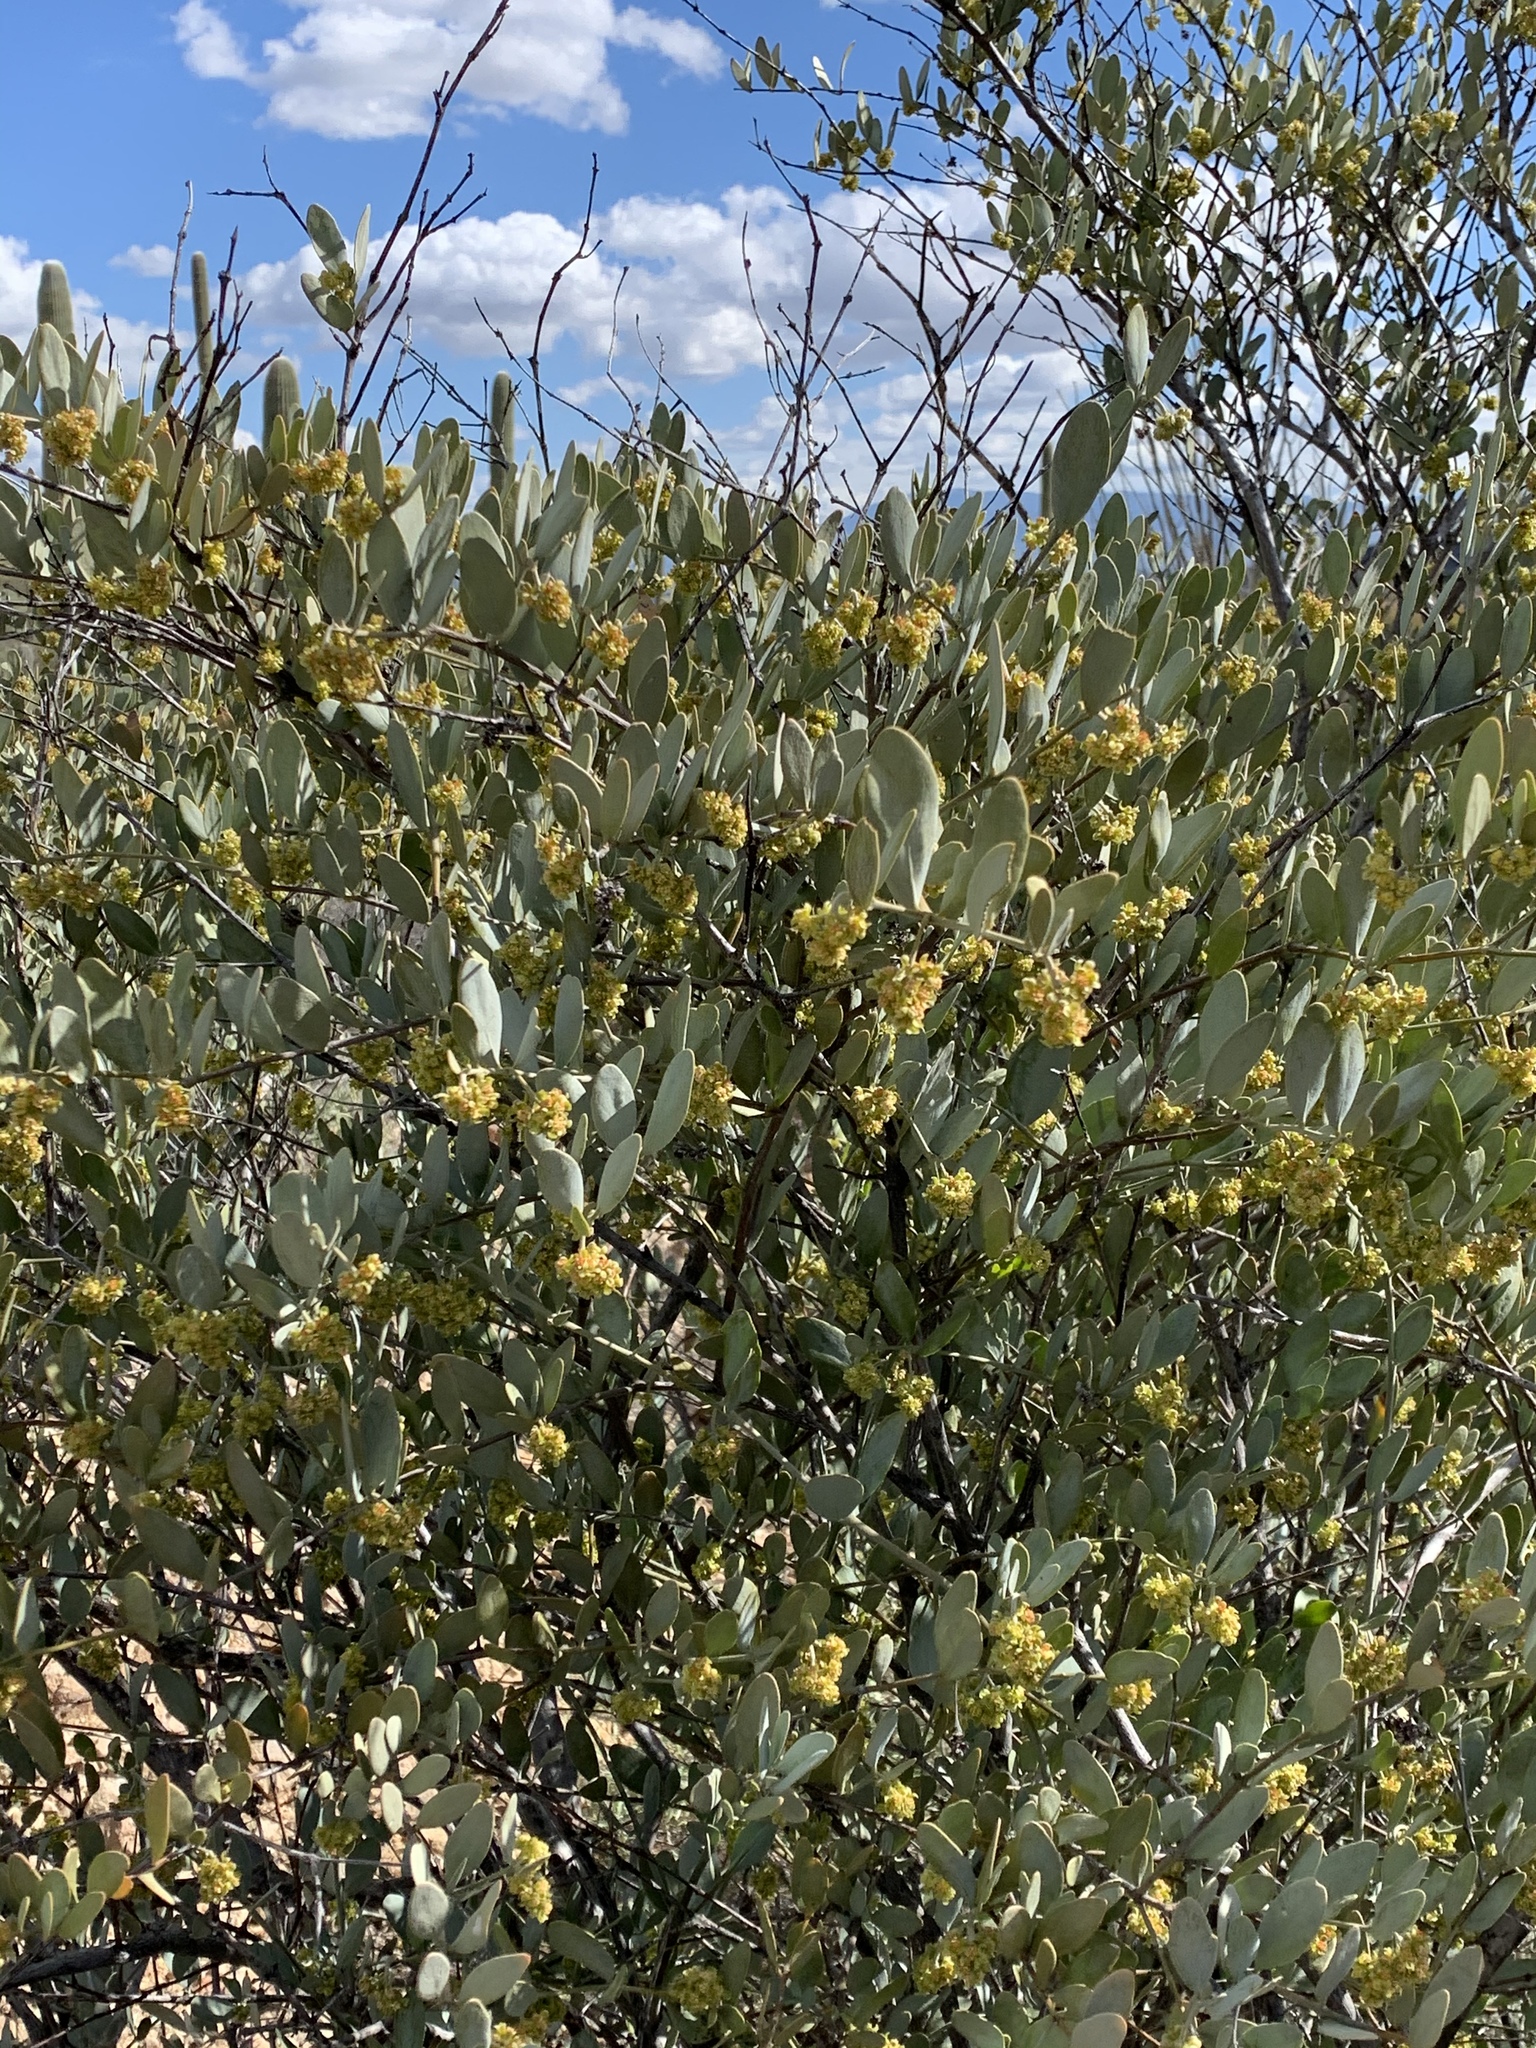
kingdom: Plantae
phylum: Tracheophyta
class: Magnoliopsida
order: Caryophyllales
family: Simmondsiaceae
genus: Simmondsia
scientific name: Simmondsia chinensis
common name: Jojoba
